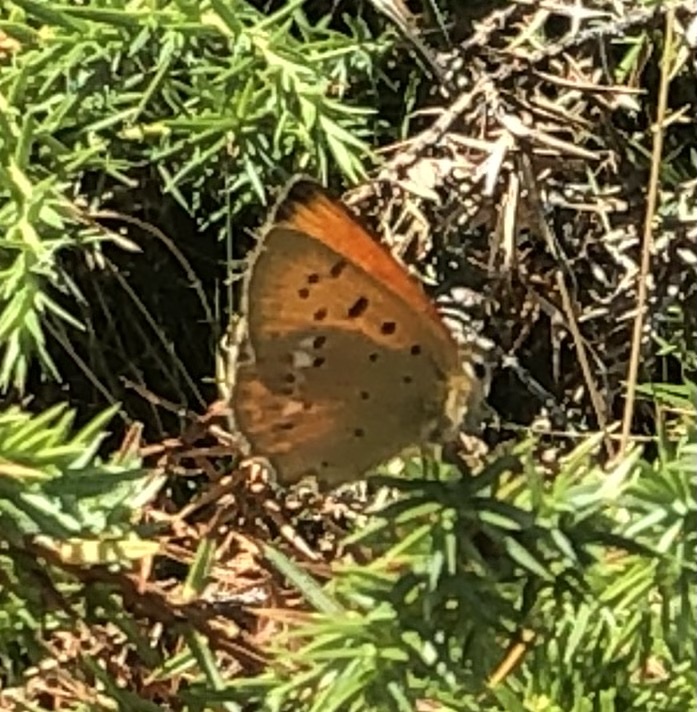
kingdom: Animalia
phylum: Arthropoda
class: Insecta
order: Lepidoptera
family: Lycaenidae
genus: Lycaena
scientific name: Lycaena virgaureae
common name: Scarce copper
